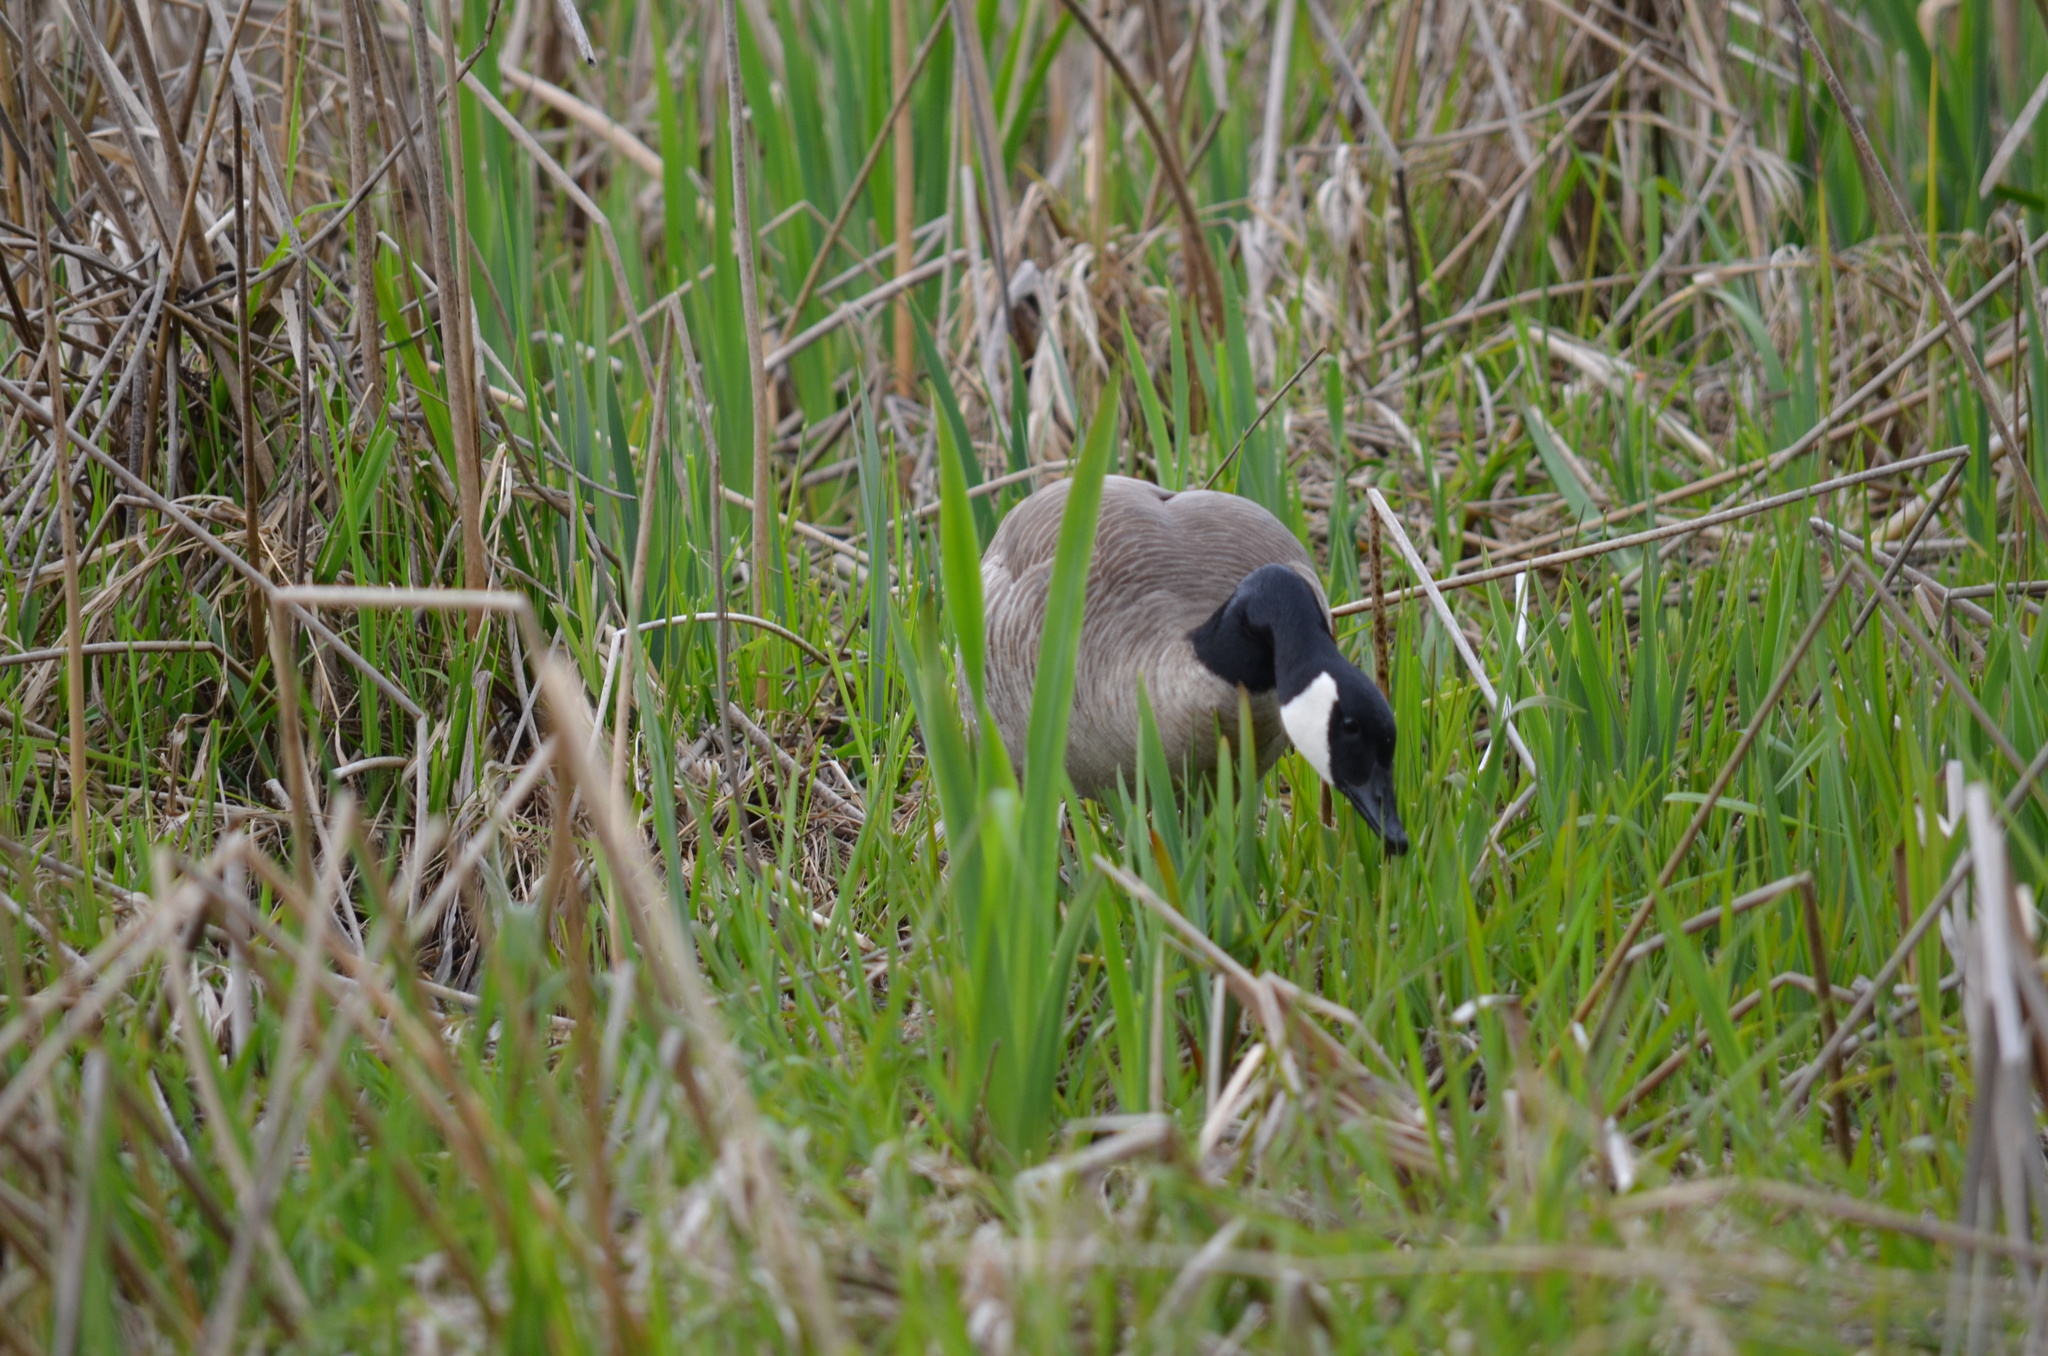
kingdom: Animalia
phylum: Chordata
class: Aves
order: Anseriformes
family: Anatidae
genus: Branta
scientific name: Branta canadensis
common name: Canada goose
